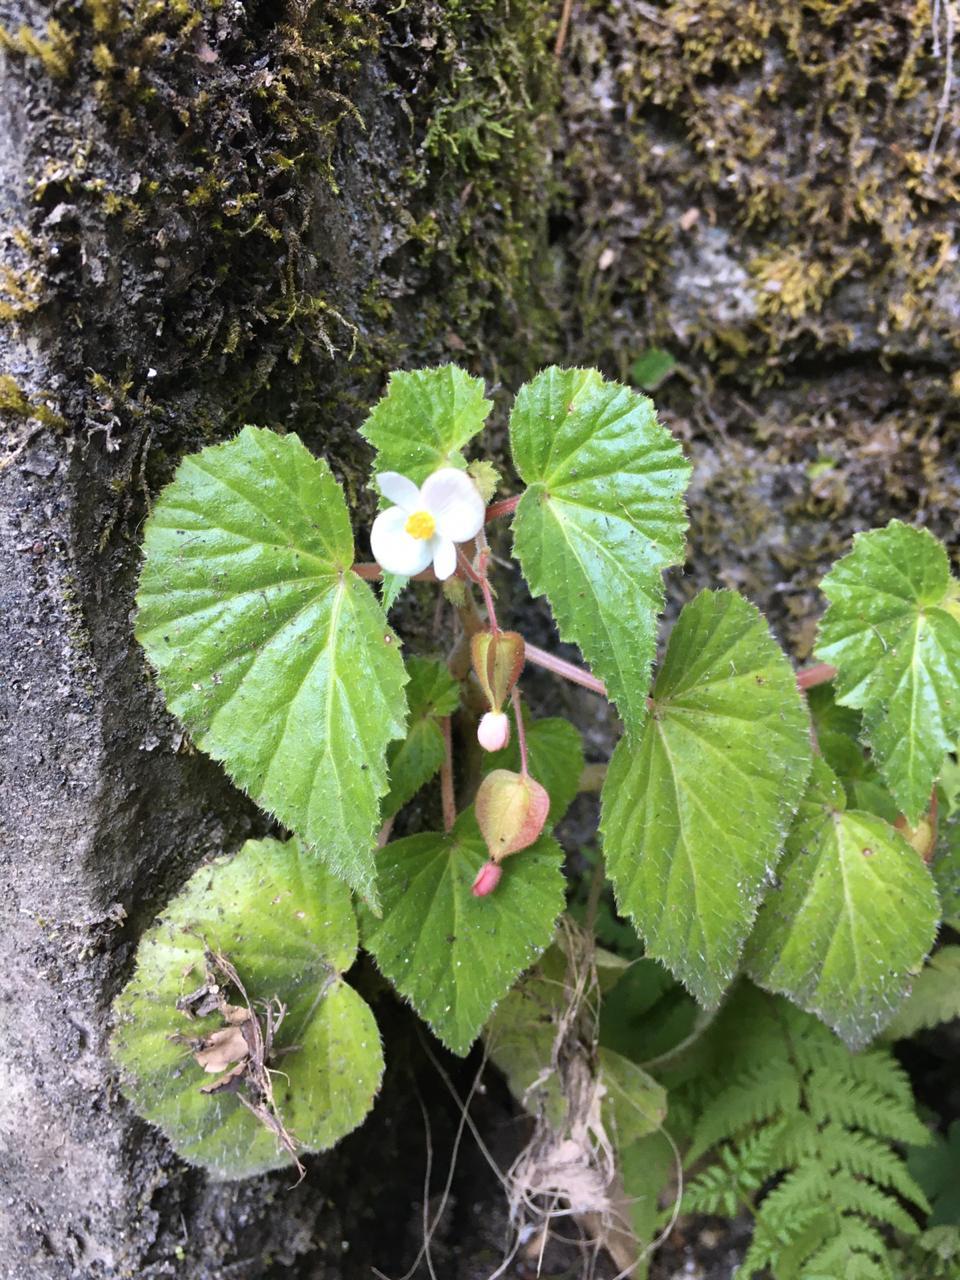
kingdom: Plantae
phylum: Tracheophyta
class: Magnoliopsida
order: Cucurbitales
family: Begoniaceae
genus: Begonia
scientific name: Begonia wallichiana
